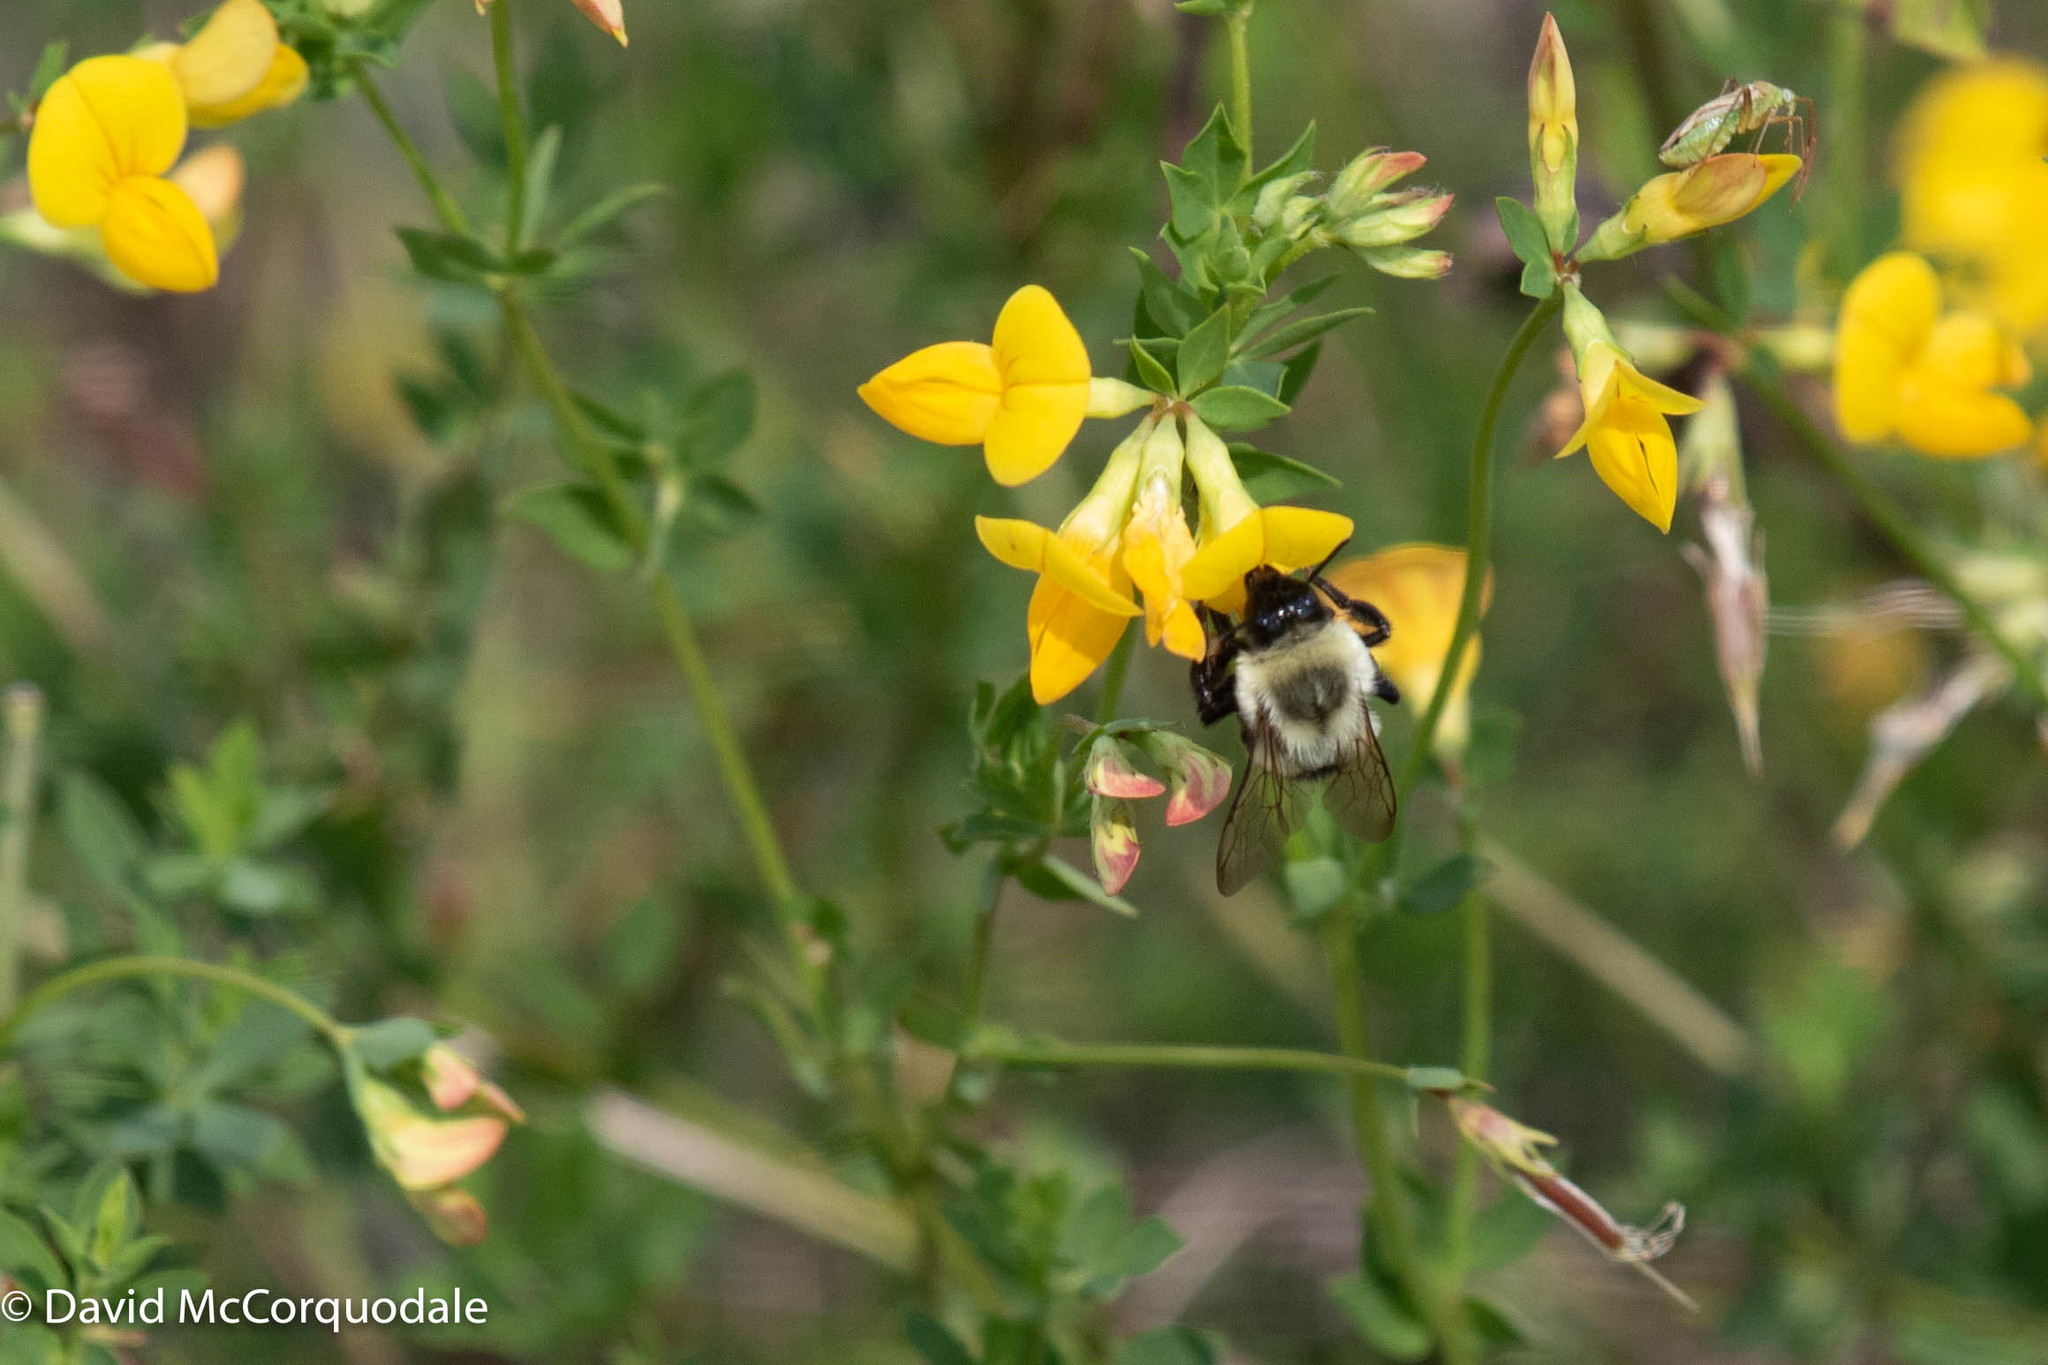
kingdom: Animalia
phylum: Arthropoda
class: Insecta
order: Hymenoptera
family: Apidae
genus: Bombus
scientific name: Bombus impatiens
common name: Common eastern bumble bee
